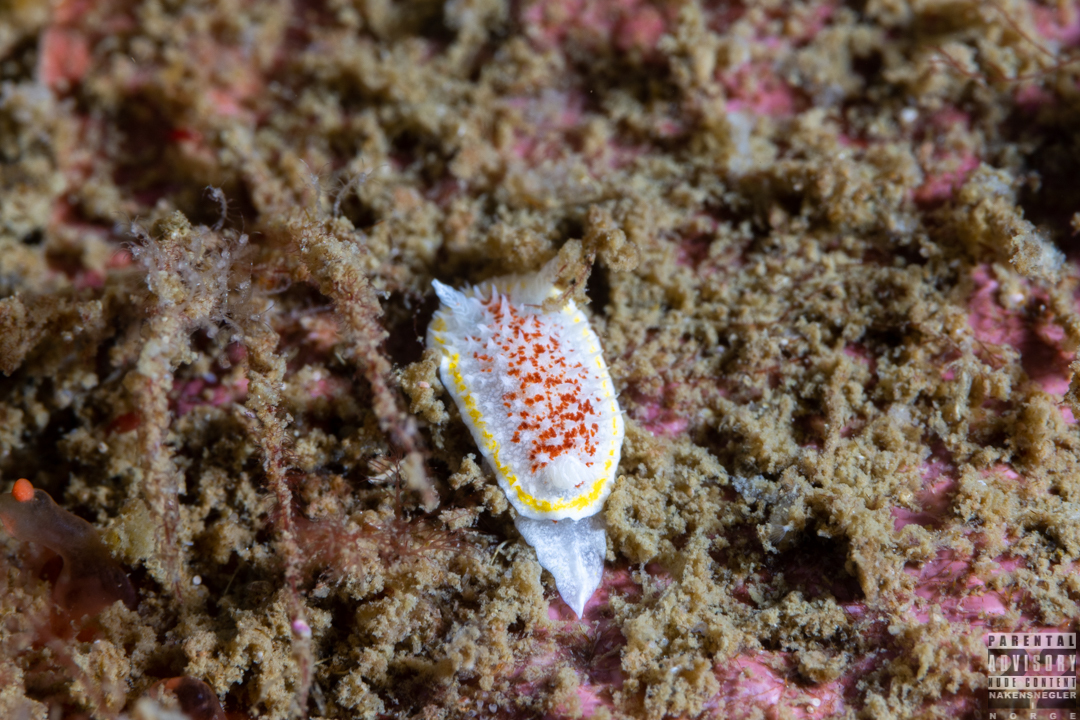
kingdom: Animalia
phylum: Mollusca
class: Gastropoda
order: Nudibranchia
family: Calycidorididae
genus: Diaphorodoris
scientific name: Diaphorodoris luteocincta
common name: Fried egg nudibranch
